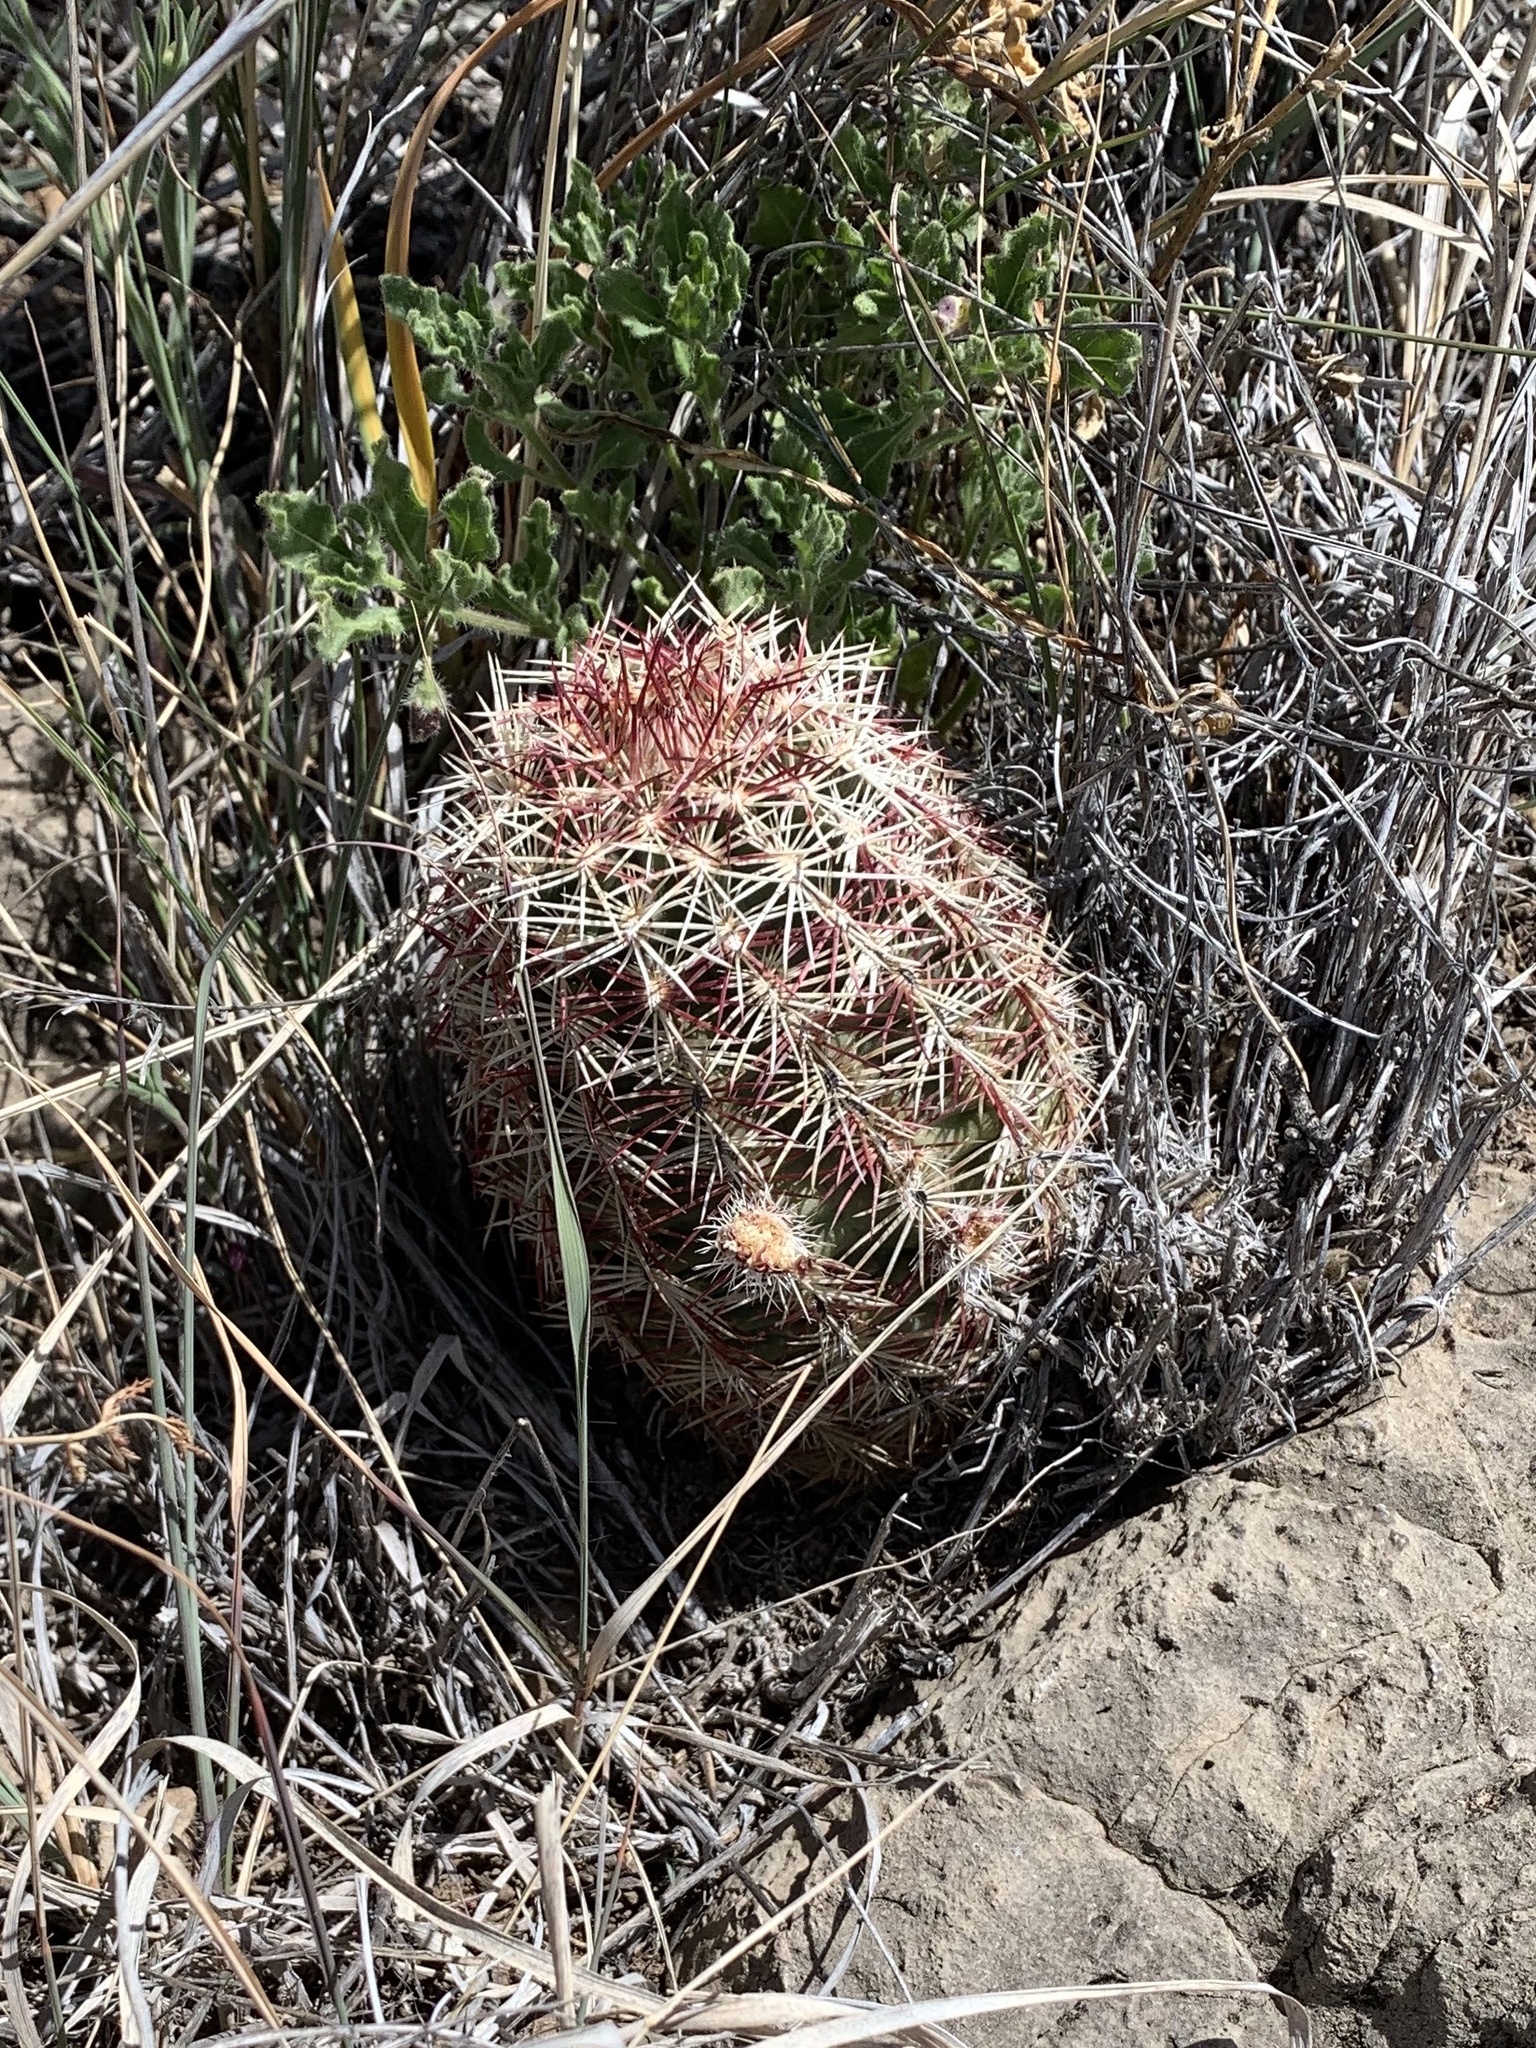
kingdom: Plantae
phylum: Tracheophyta
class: Magnoliopsida
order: Caryophyllales
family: Cactaceae
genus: Echinocereus
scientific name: Echinocereus viridiflorus
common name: Nylon hedgehog cactus
